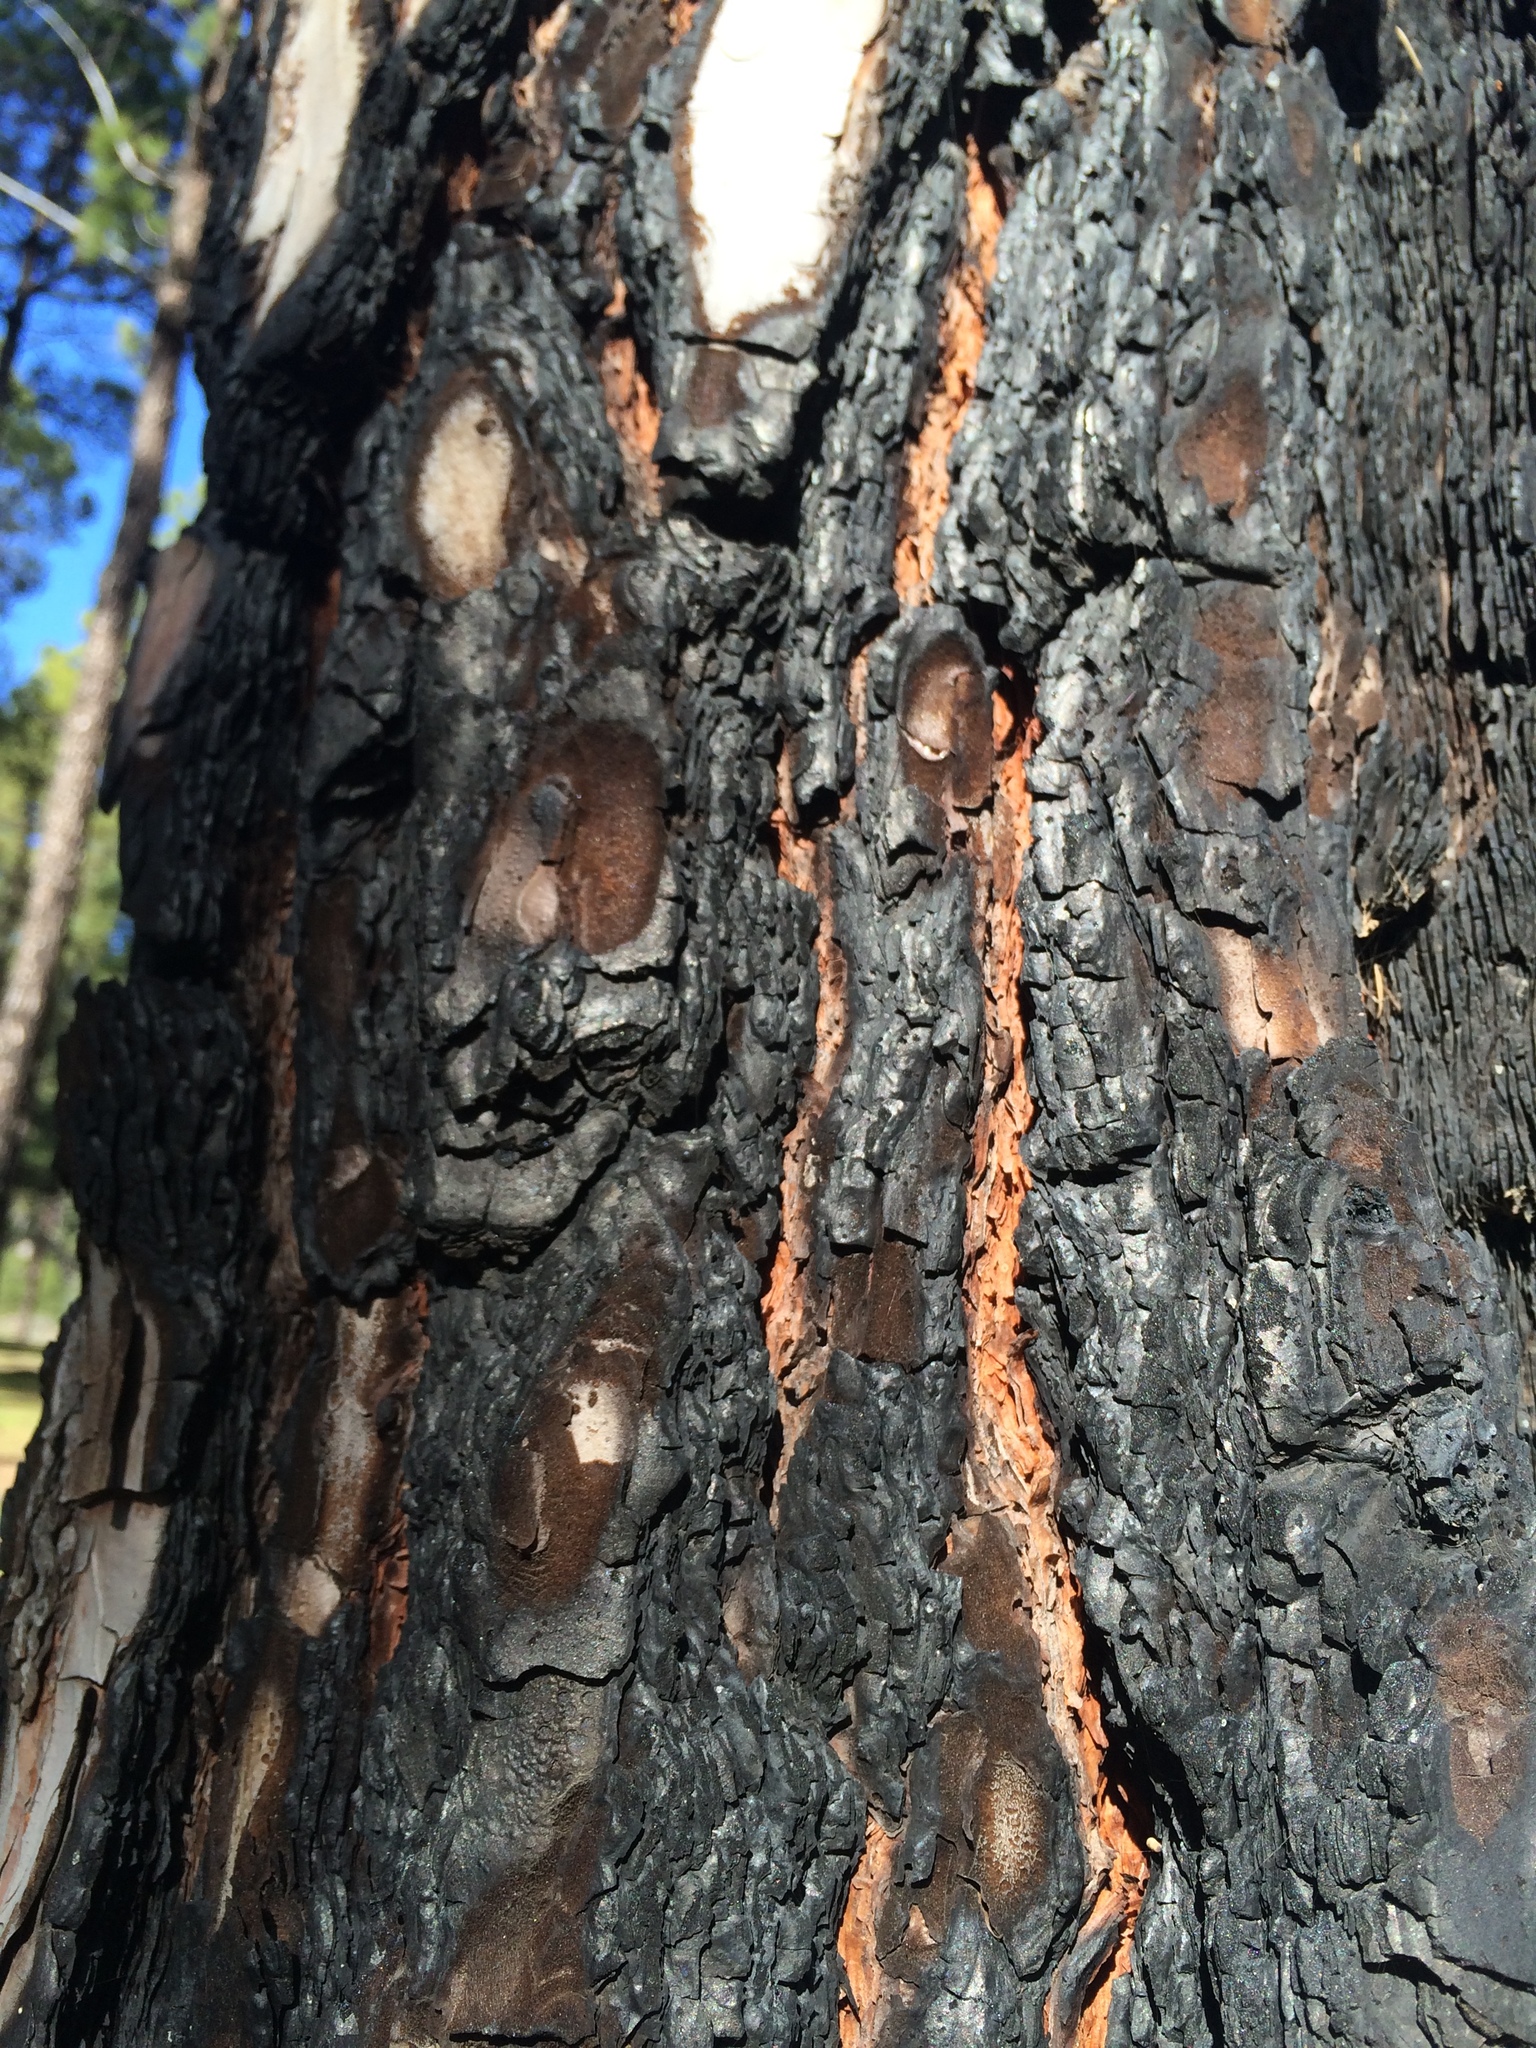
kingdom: Plantae
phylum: Tracheophyta
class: Pinopsida
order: Pinales
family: Pinaceae
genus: Pinus
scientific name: Pinus canariensis
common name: Canary islands pine
